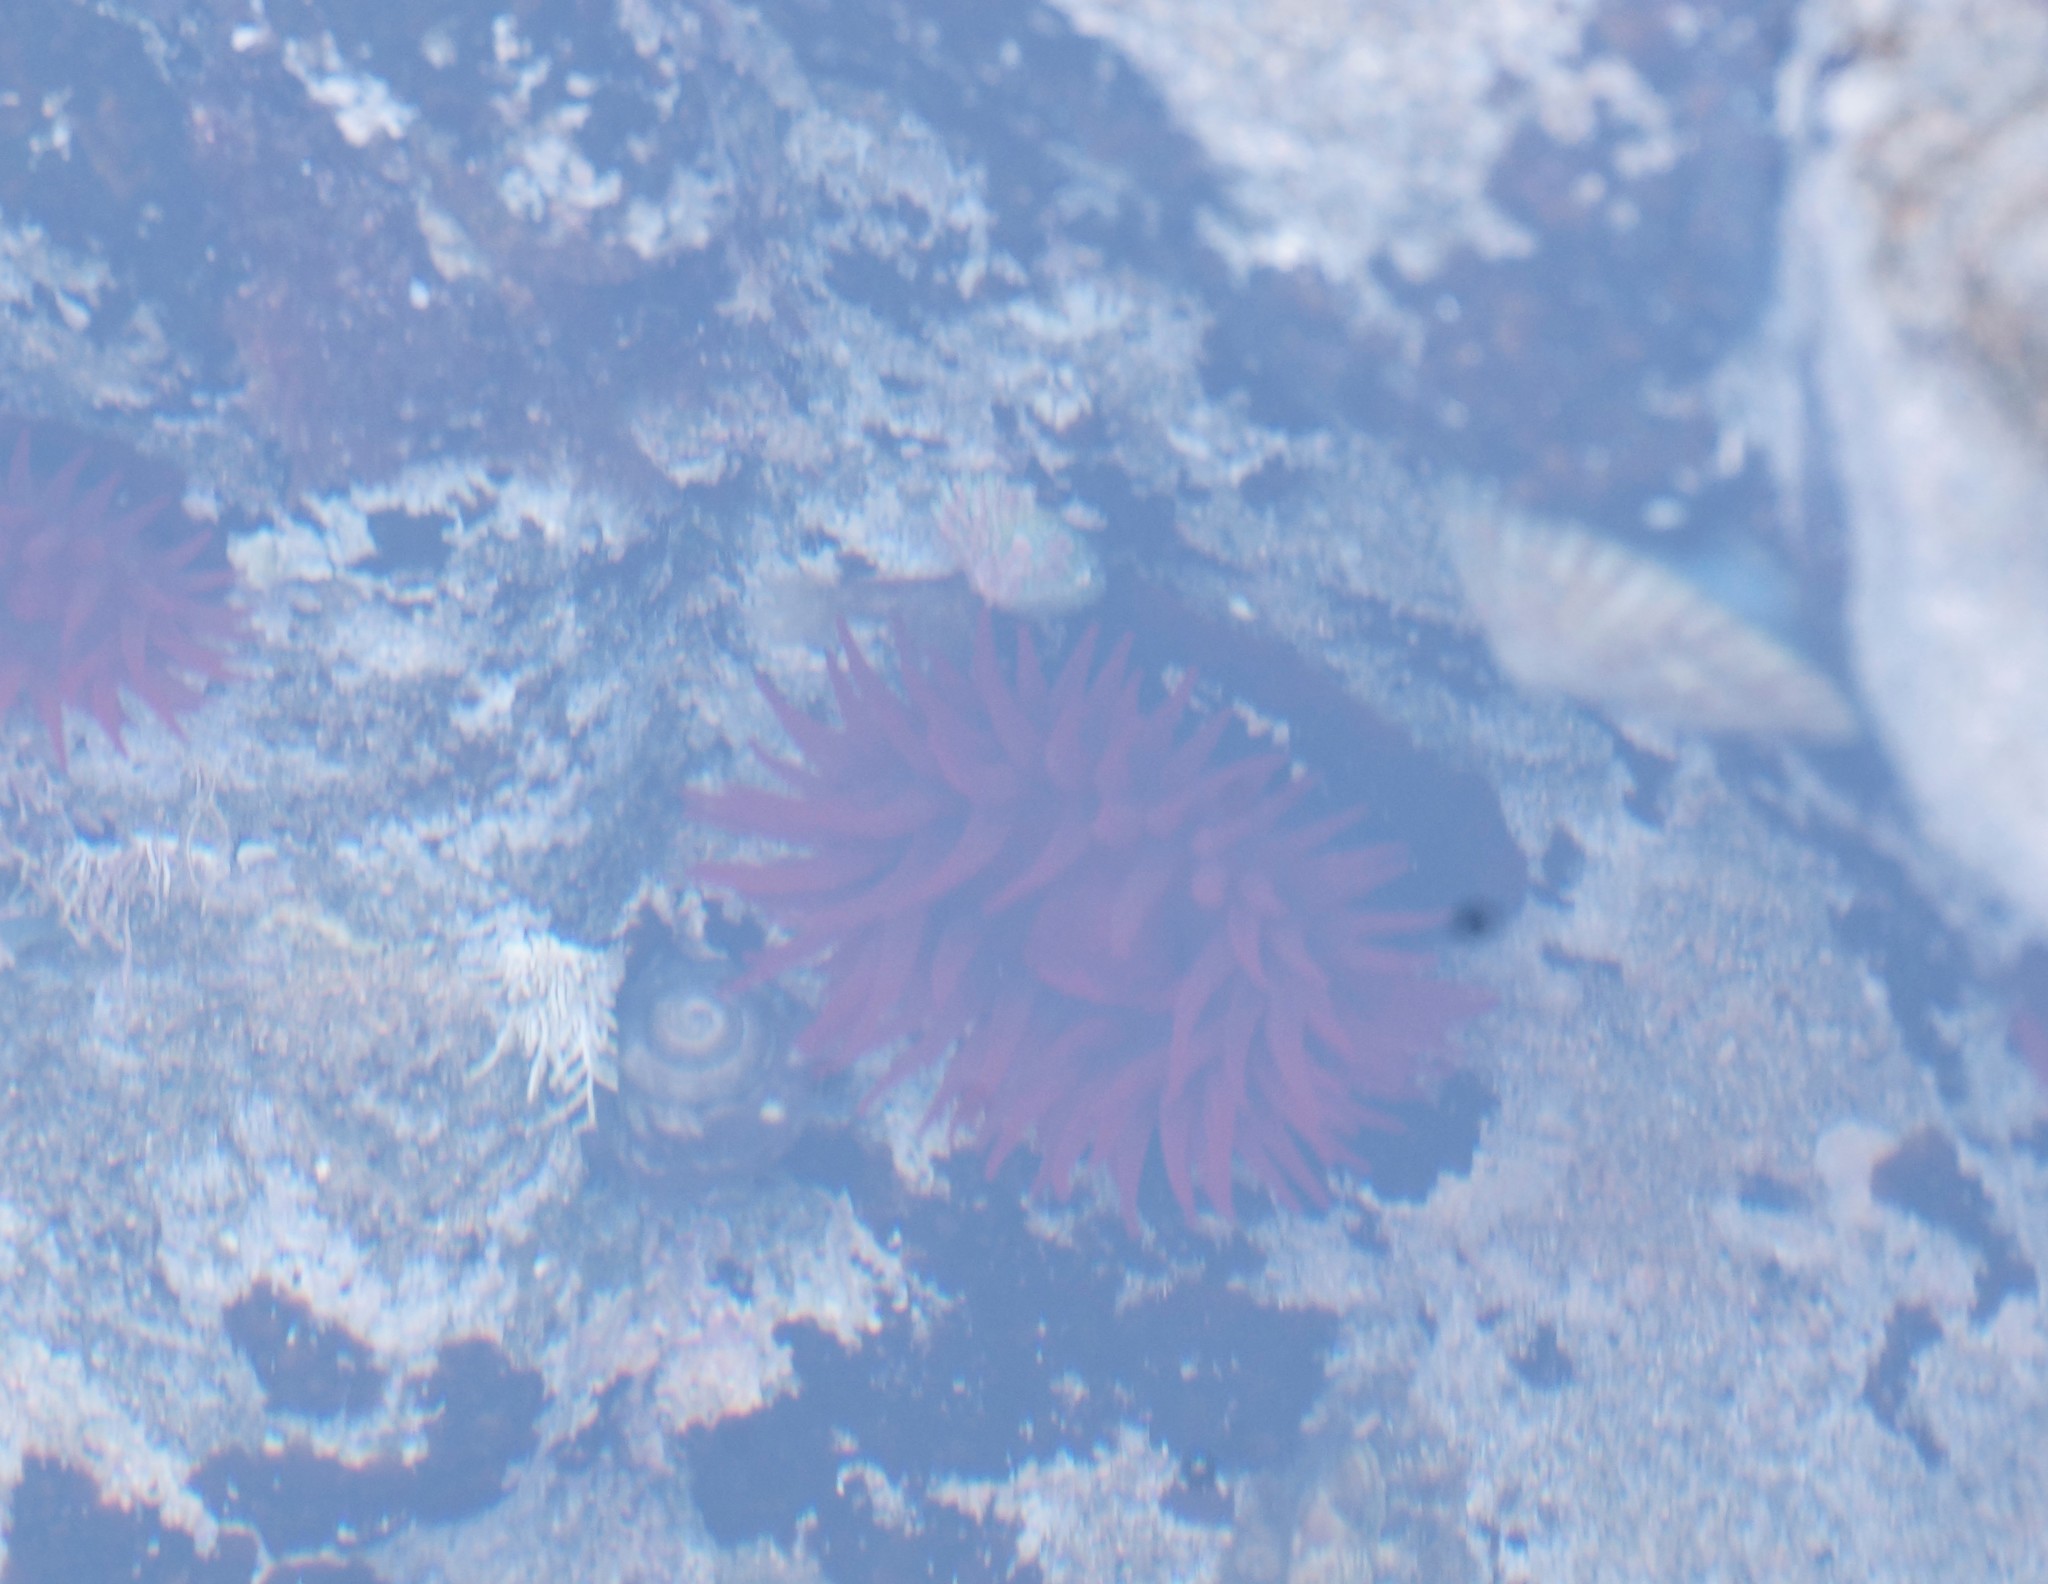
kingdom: Animalia
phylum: Cnidaria
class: Anthozoa
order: Actiniaria
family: Actiniidae
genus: Actinia
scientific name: Actinia tenebrosa
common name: Waratah anemone
